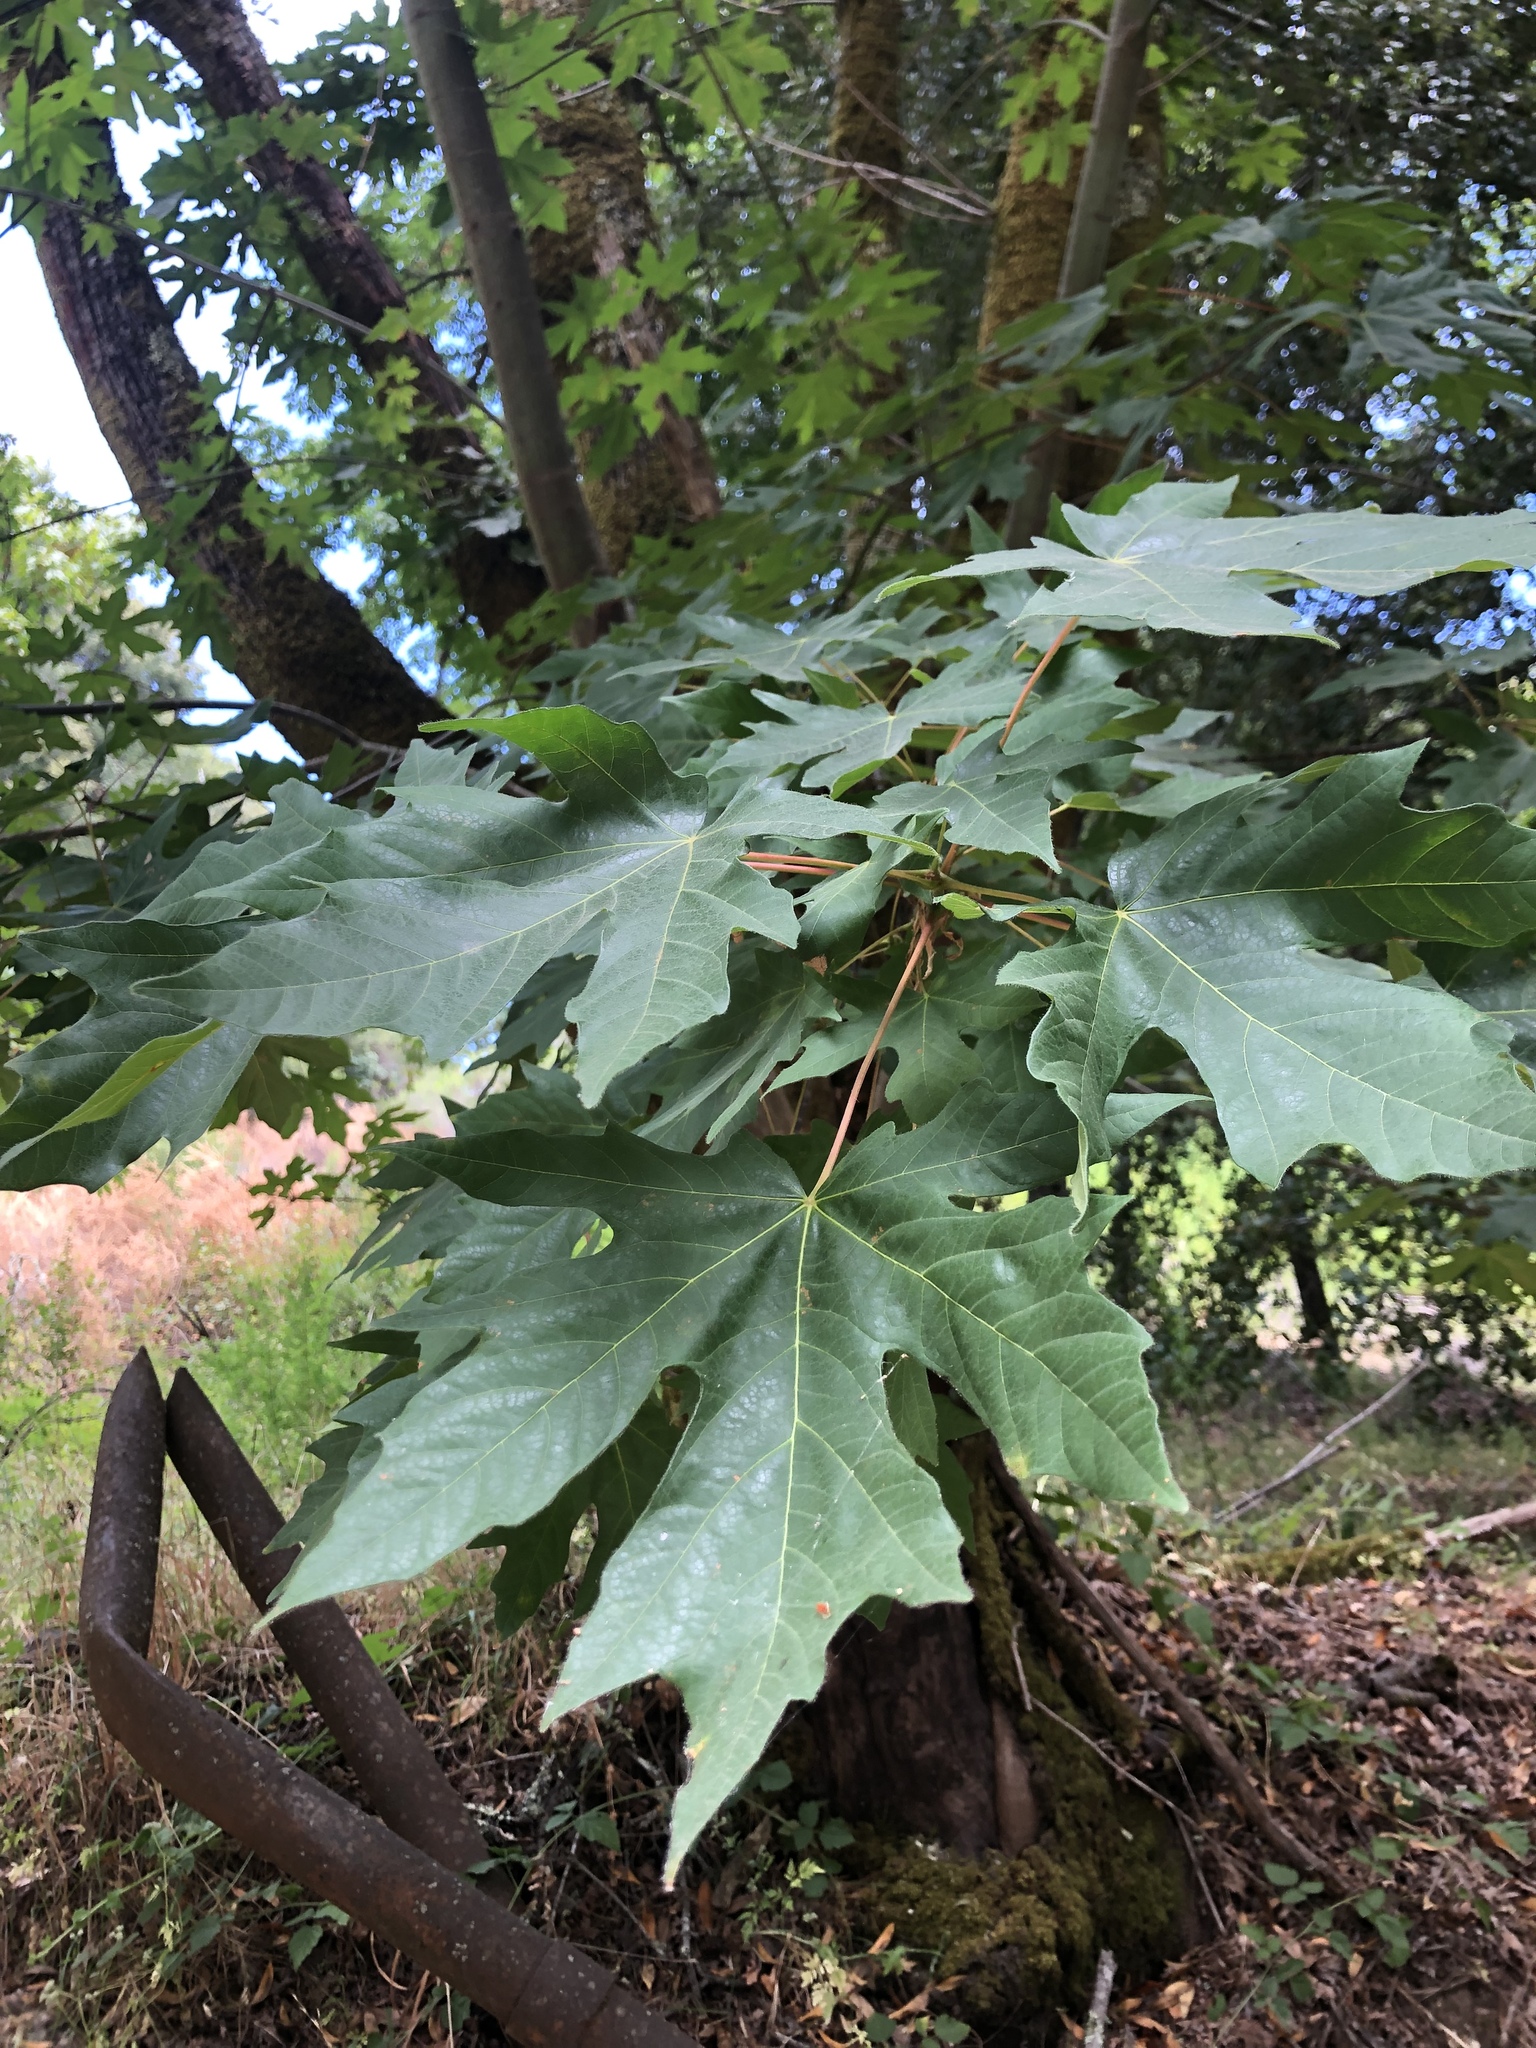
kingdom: Plantae
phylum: Tracheophyta
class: Magnoliopsida
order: Sapindales
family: Sapindaceae
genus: Acer
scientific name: Acer macrophyllum
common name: Oregon maple
